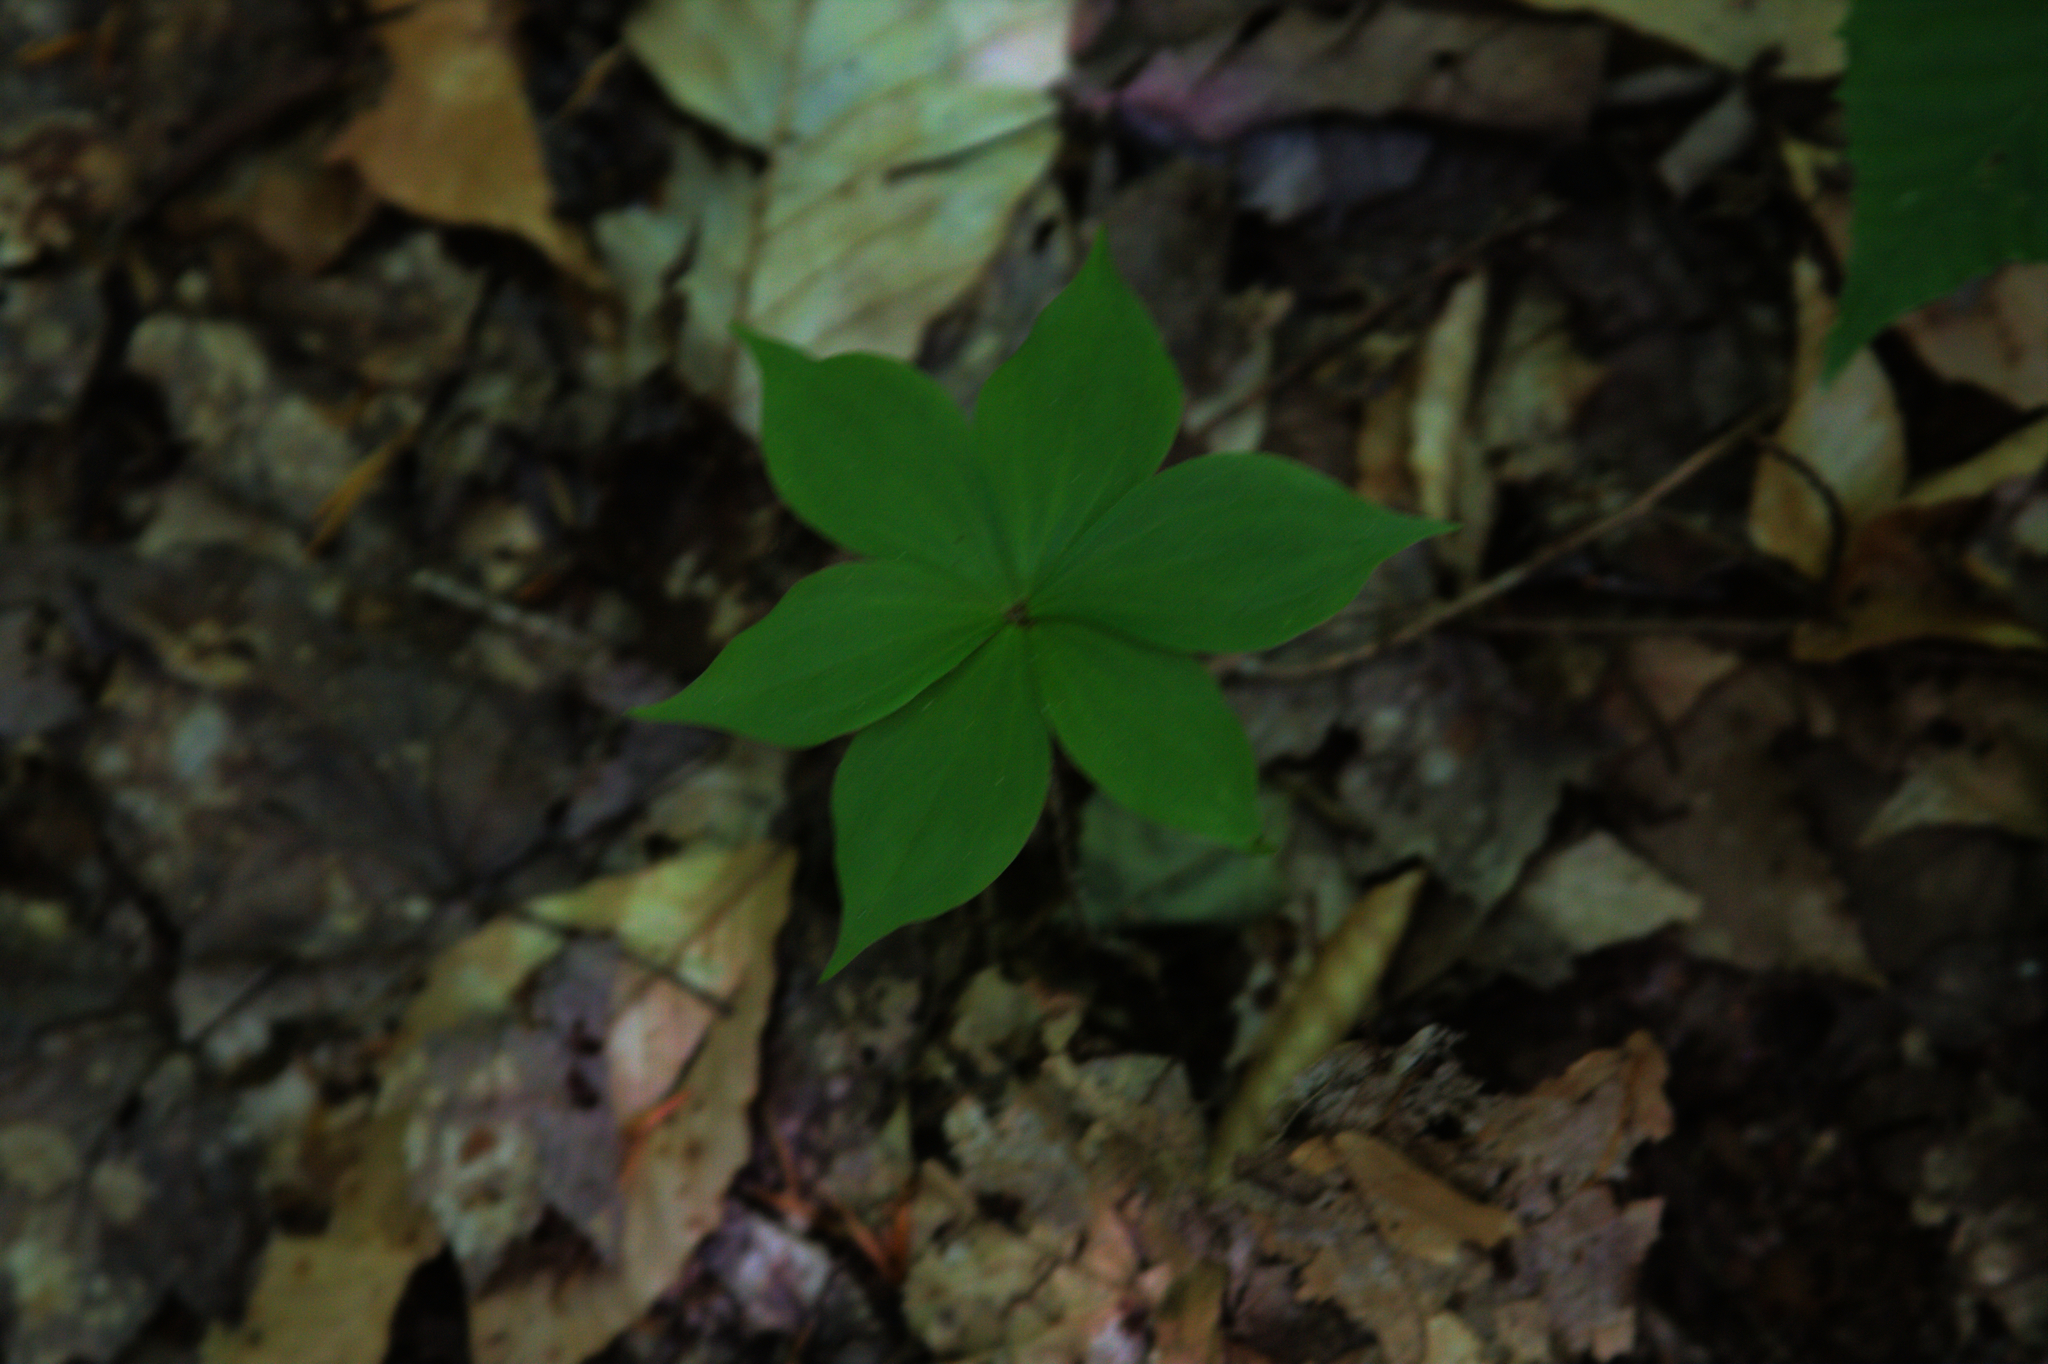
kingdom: Plantae
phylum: Tracheophyta
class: Liliopsida
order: Liliales
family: Liliaceae
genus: Medeola
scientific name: Medeola virginiana
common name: Indian cucumber-root
